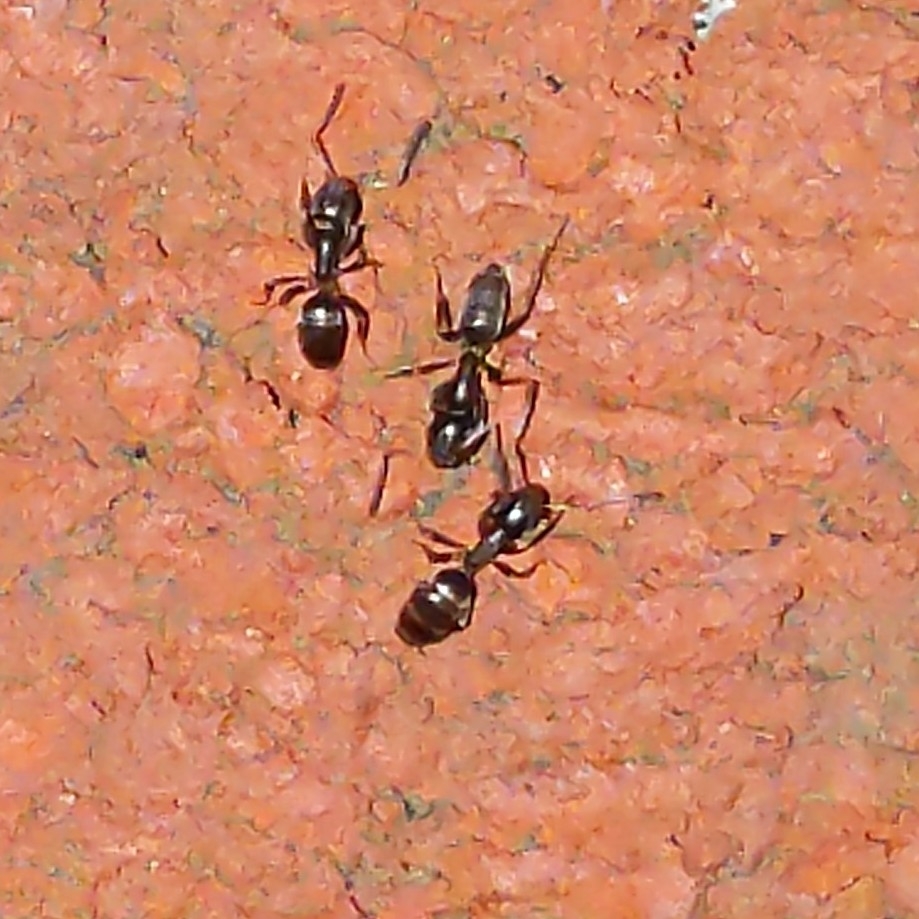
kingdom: Animalia
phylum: Arthropoda
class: Insecta
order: Hymenoptera
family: Formicidae
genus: Tapinoma
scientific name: Tapinoma sessile
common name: Odorous house ant
